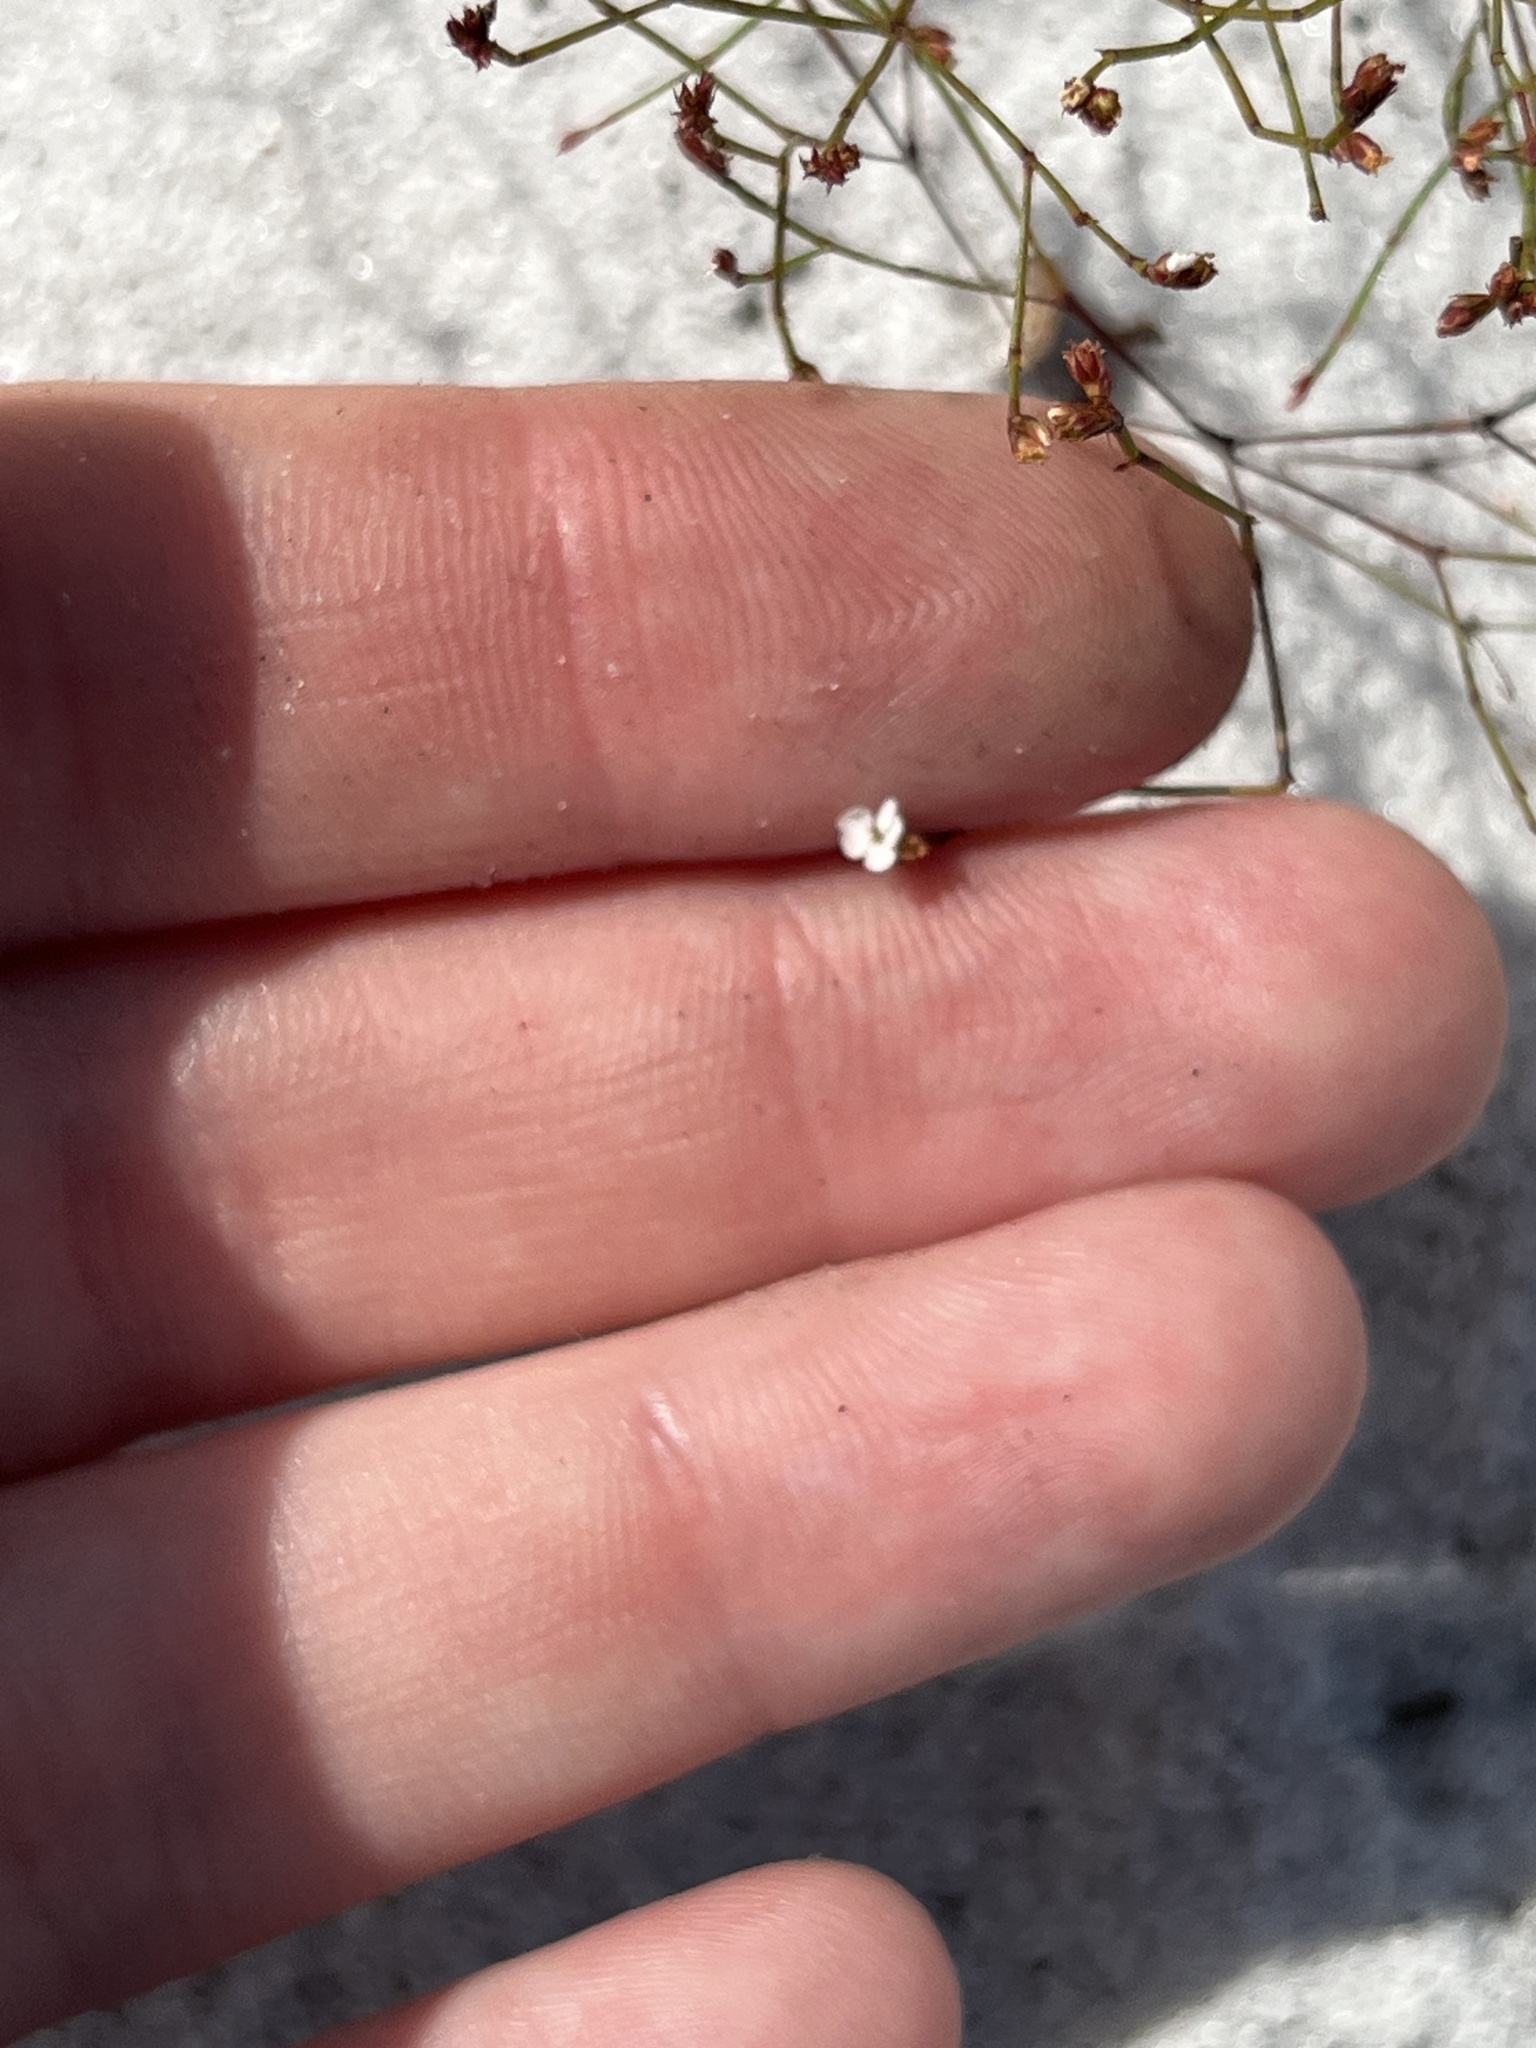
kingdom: Plantae
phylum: Tracheophyta
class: Magnoliopsida
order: Caryophyllales
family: Caryophyllaceae
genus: Stipulicida
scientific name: Stipulicida setacea
